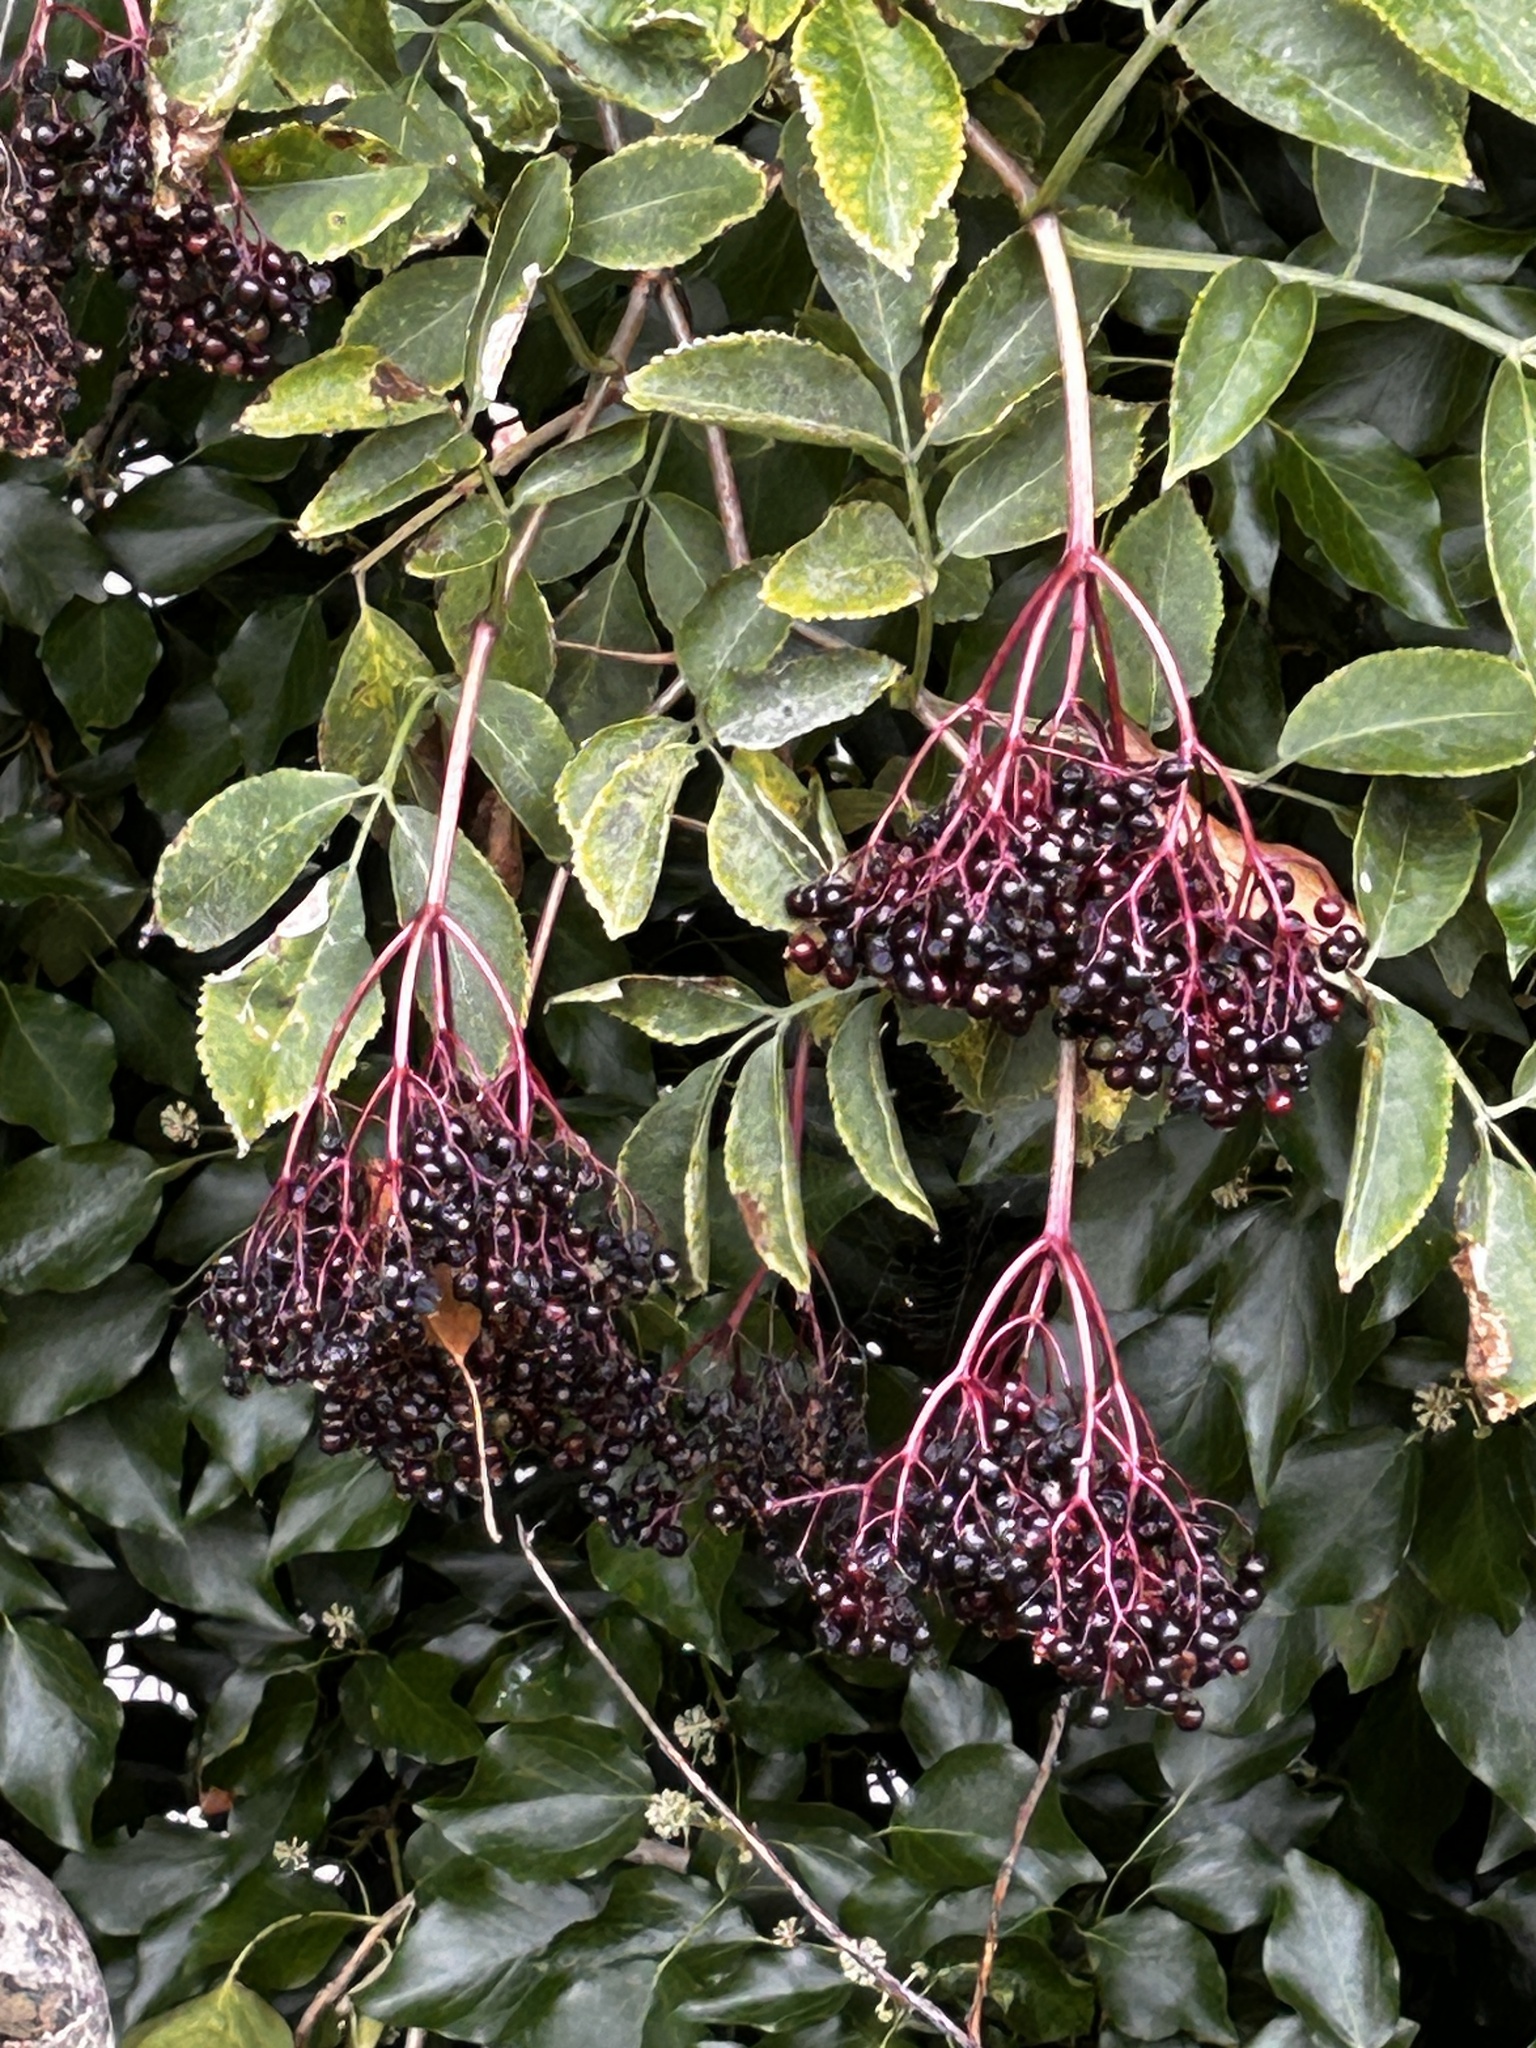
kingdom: Plantae
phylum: Tracheophyta
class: Magnoliopsida
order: Dipsacales
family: Viburnaceae
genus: Sambucus
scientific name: Sambucus nigra
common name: Elder
